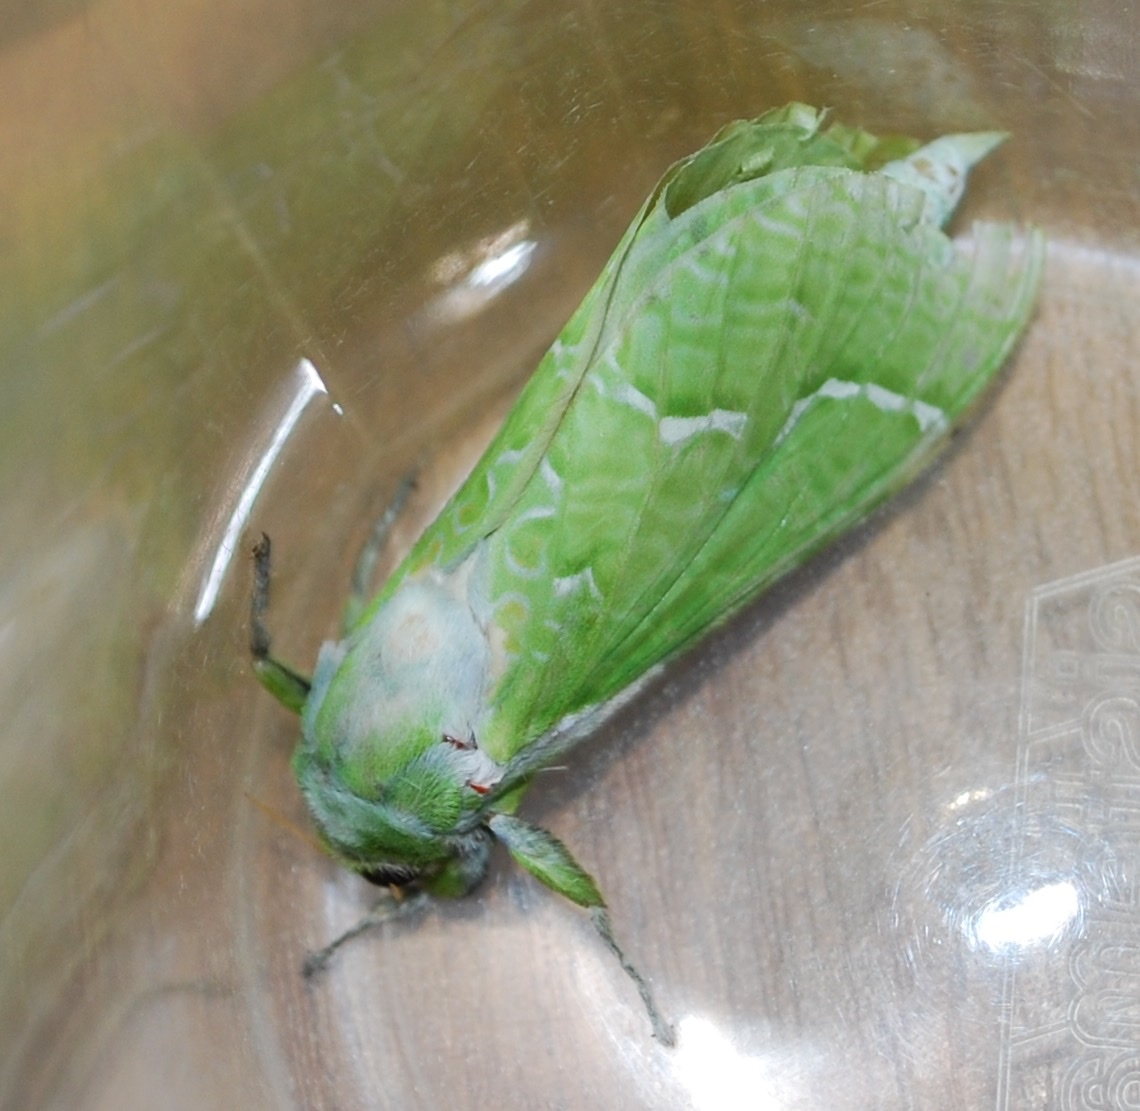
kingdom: Animalia
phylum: Arthropoda
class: Insecta
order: Lepidoptera
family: Hepialidae
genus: Aenetus
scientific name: Aenetus virescens
